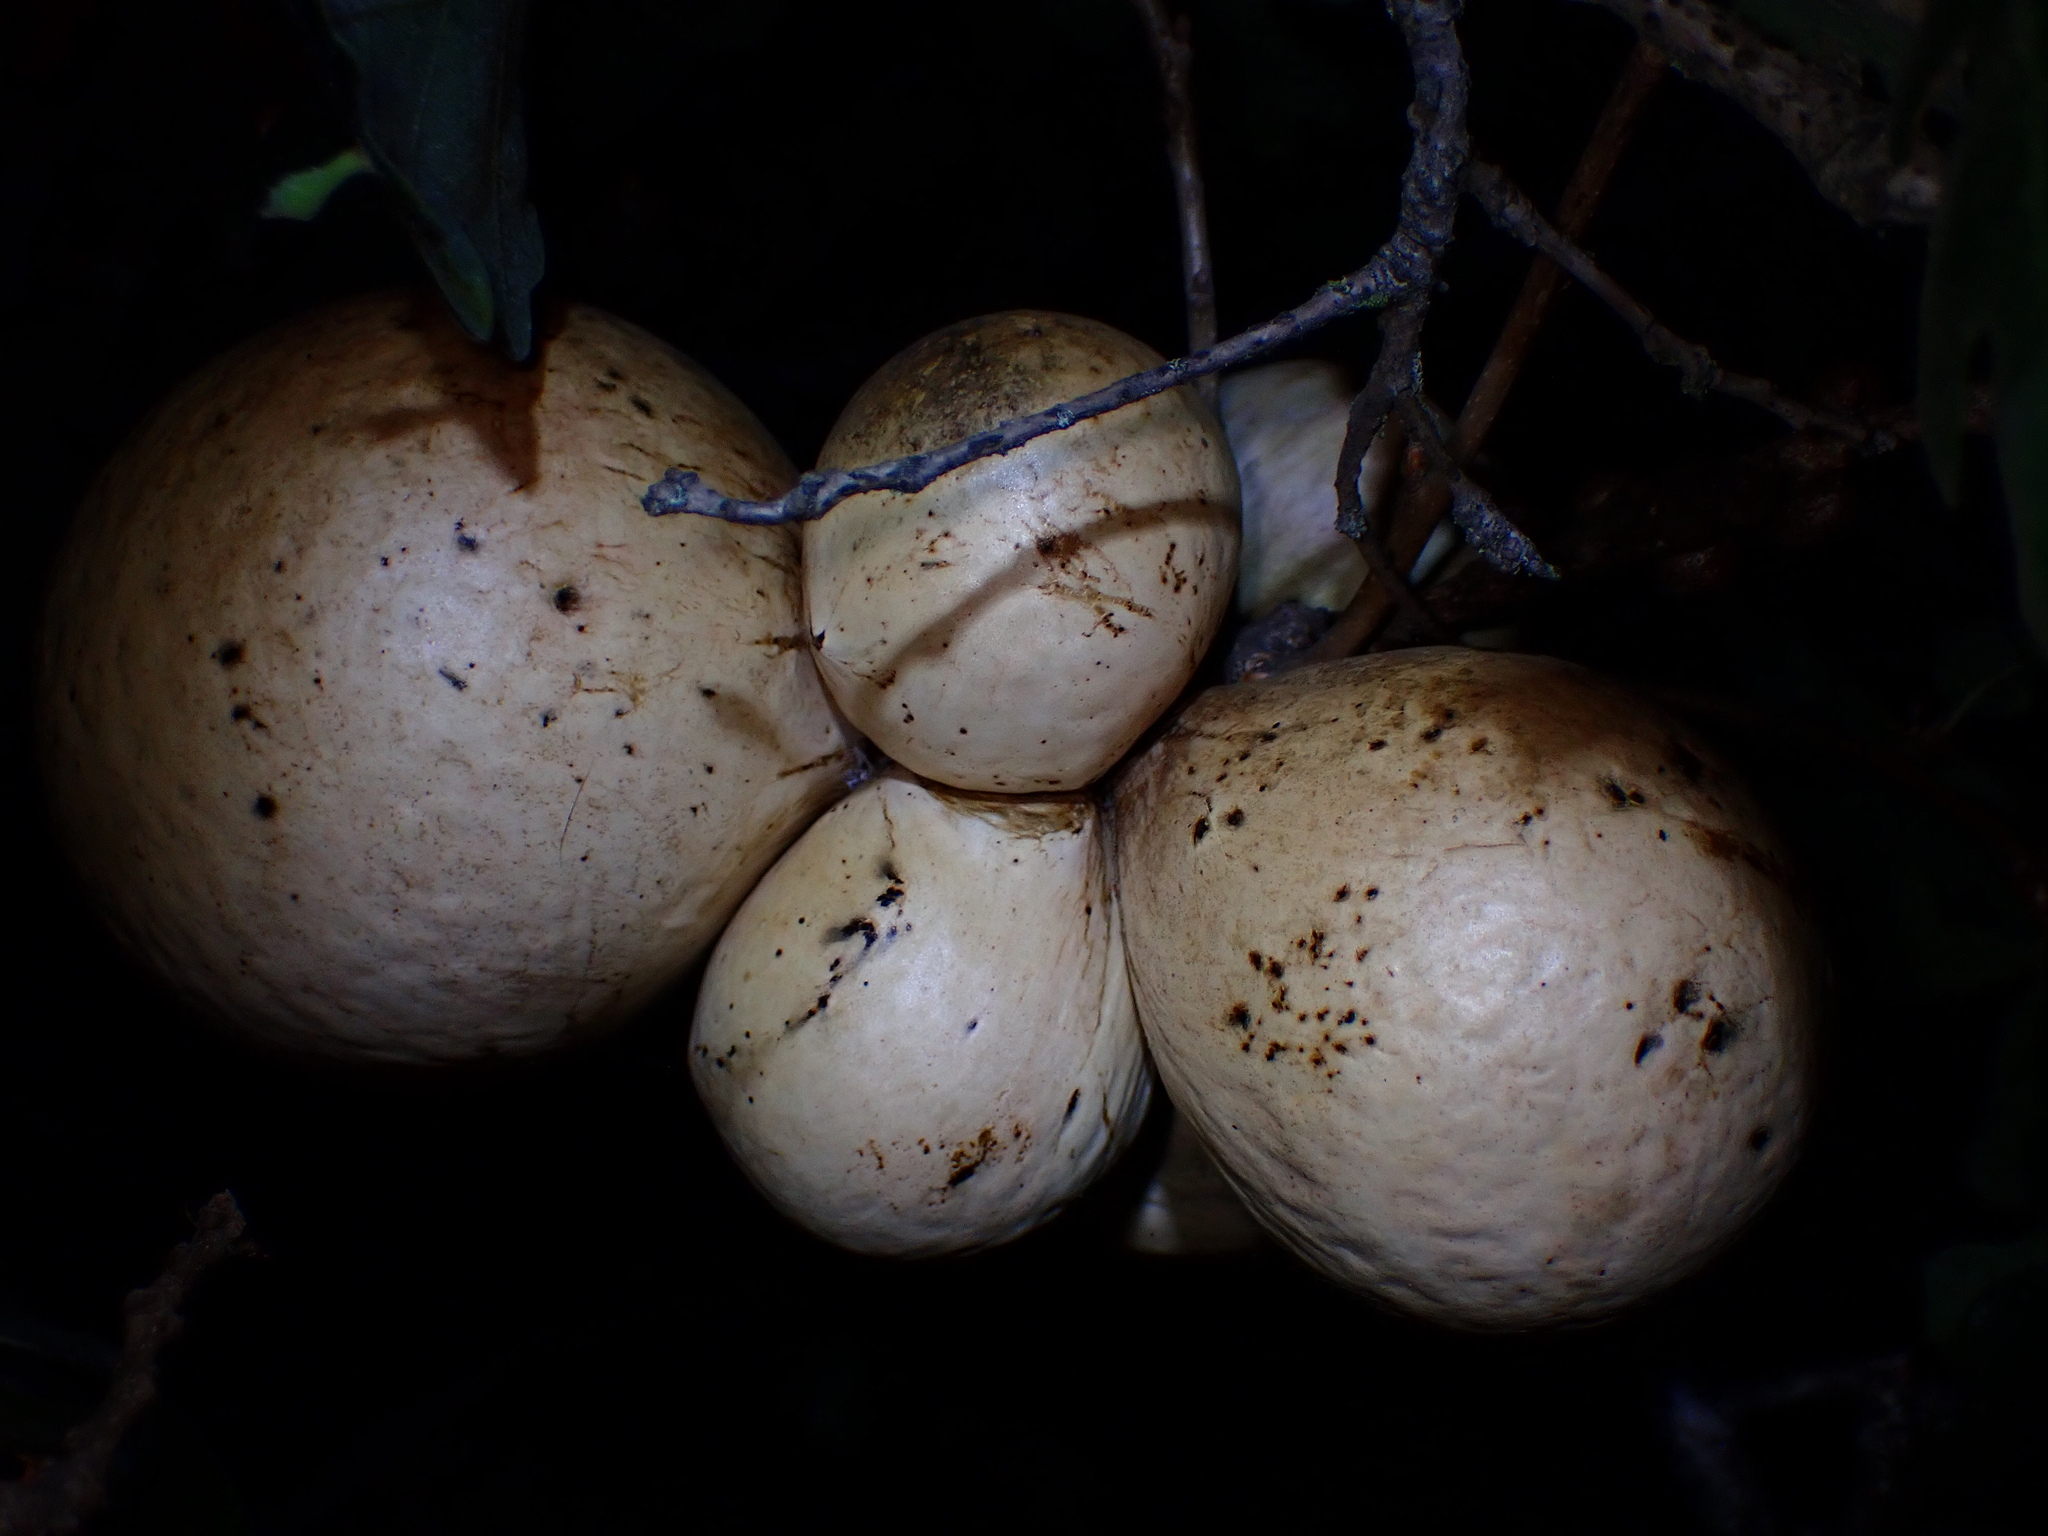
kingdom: Animalia
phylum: Arthropoda
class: Insecta
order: Hymenoptera
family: Cynipidae
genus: Andricus
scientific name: Andricus quercuscalifornicus
